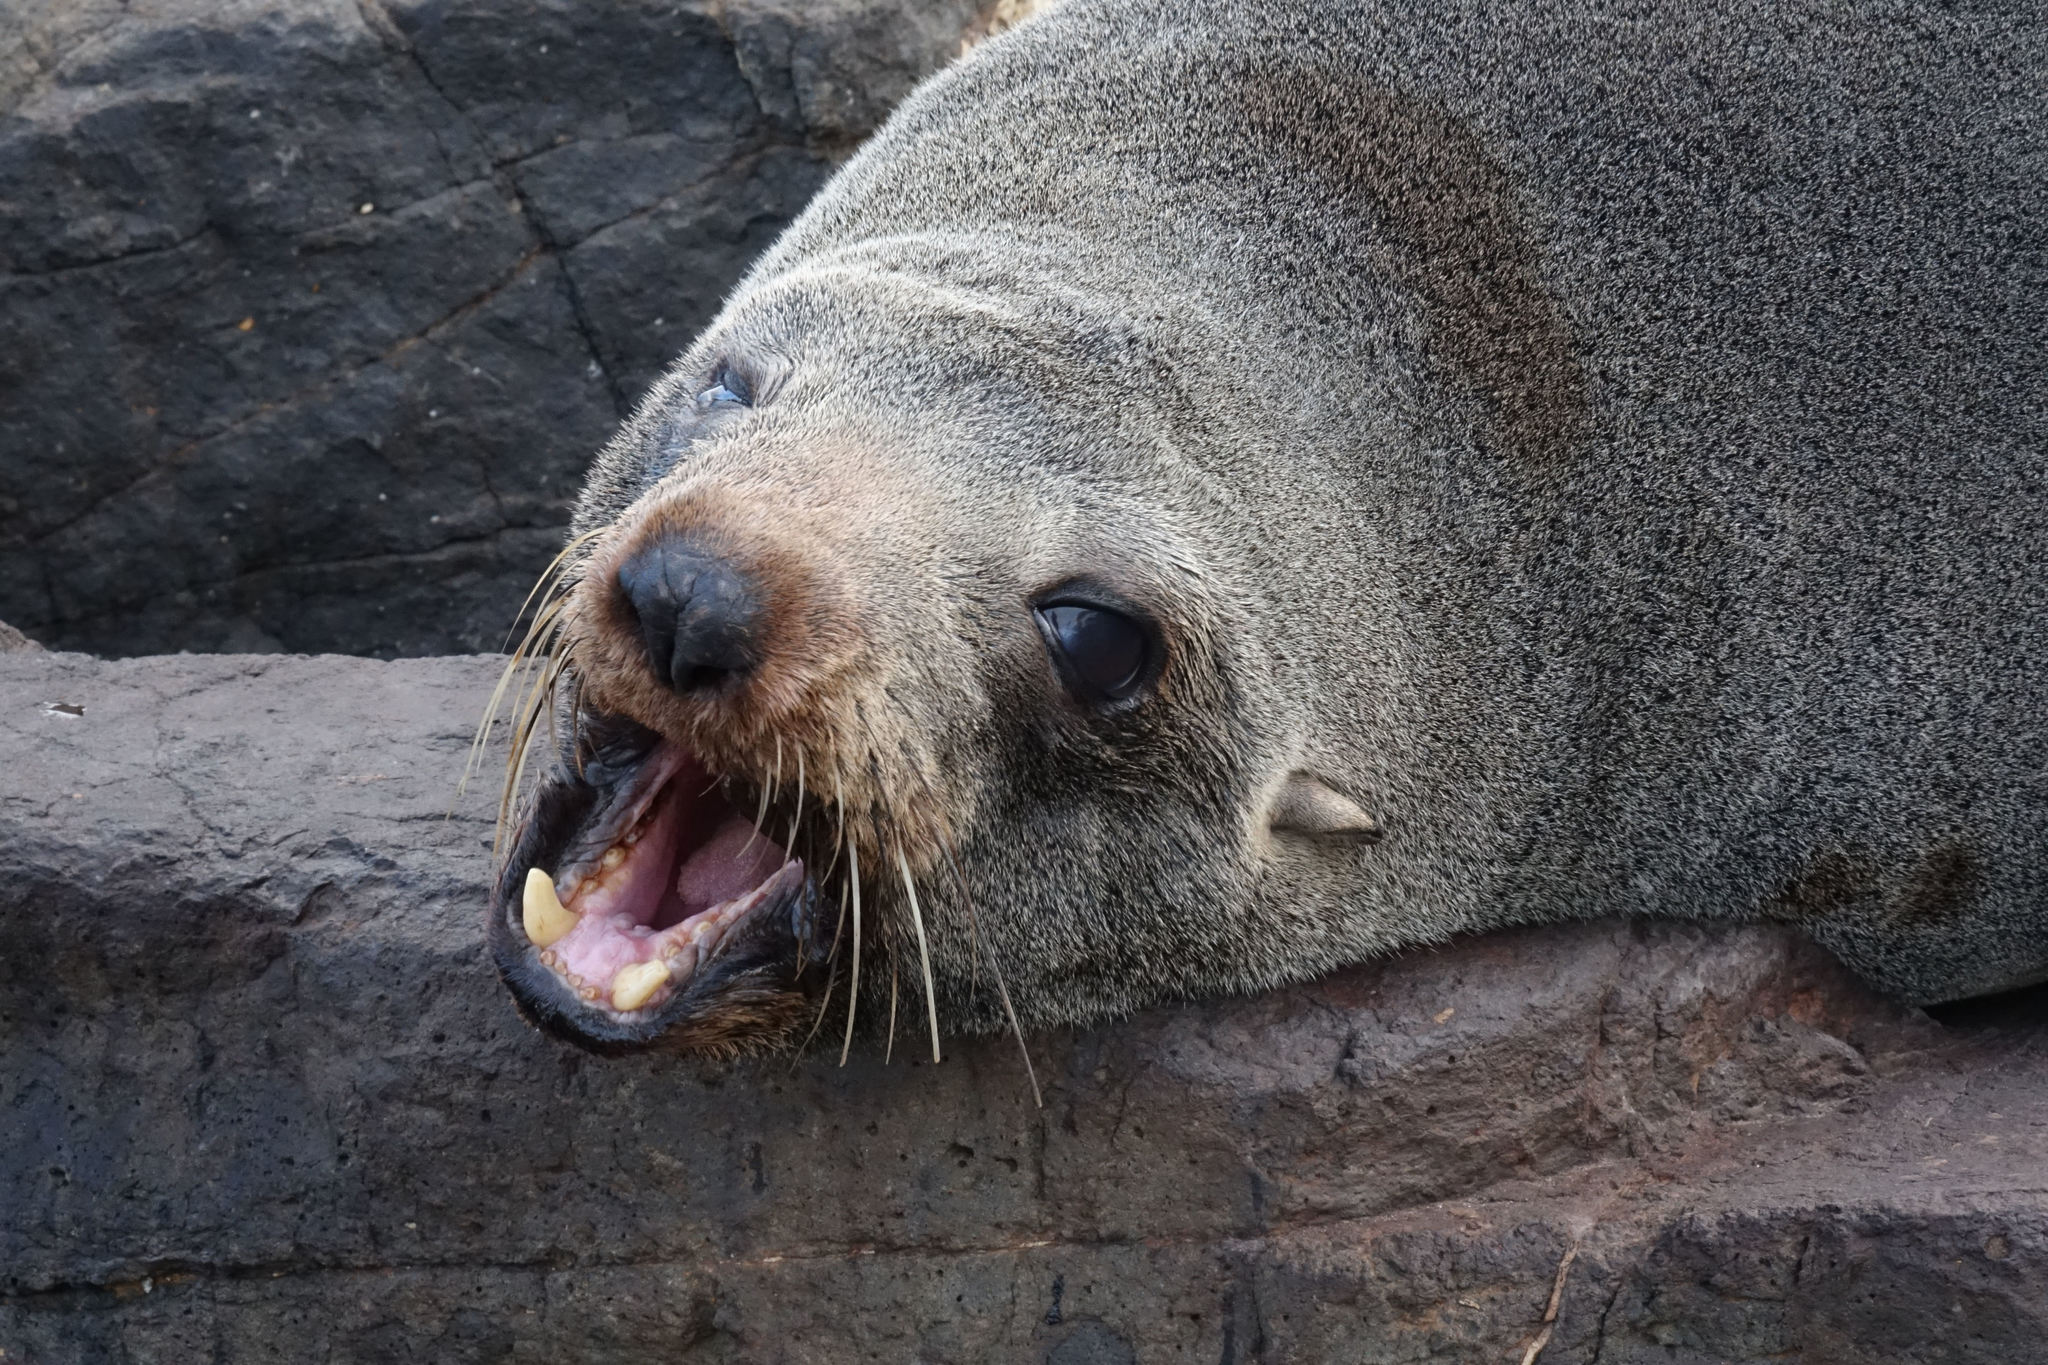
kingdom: Animalia
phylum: Chordata
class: Mammalia
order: Carnivora
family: Otariidae
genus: Arctocephalus
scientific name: Arctocephalus forsteri
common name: New zealand fur seal
